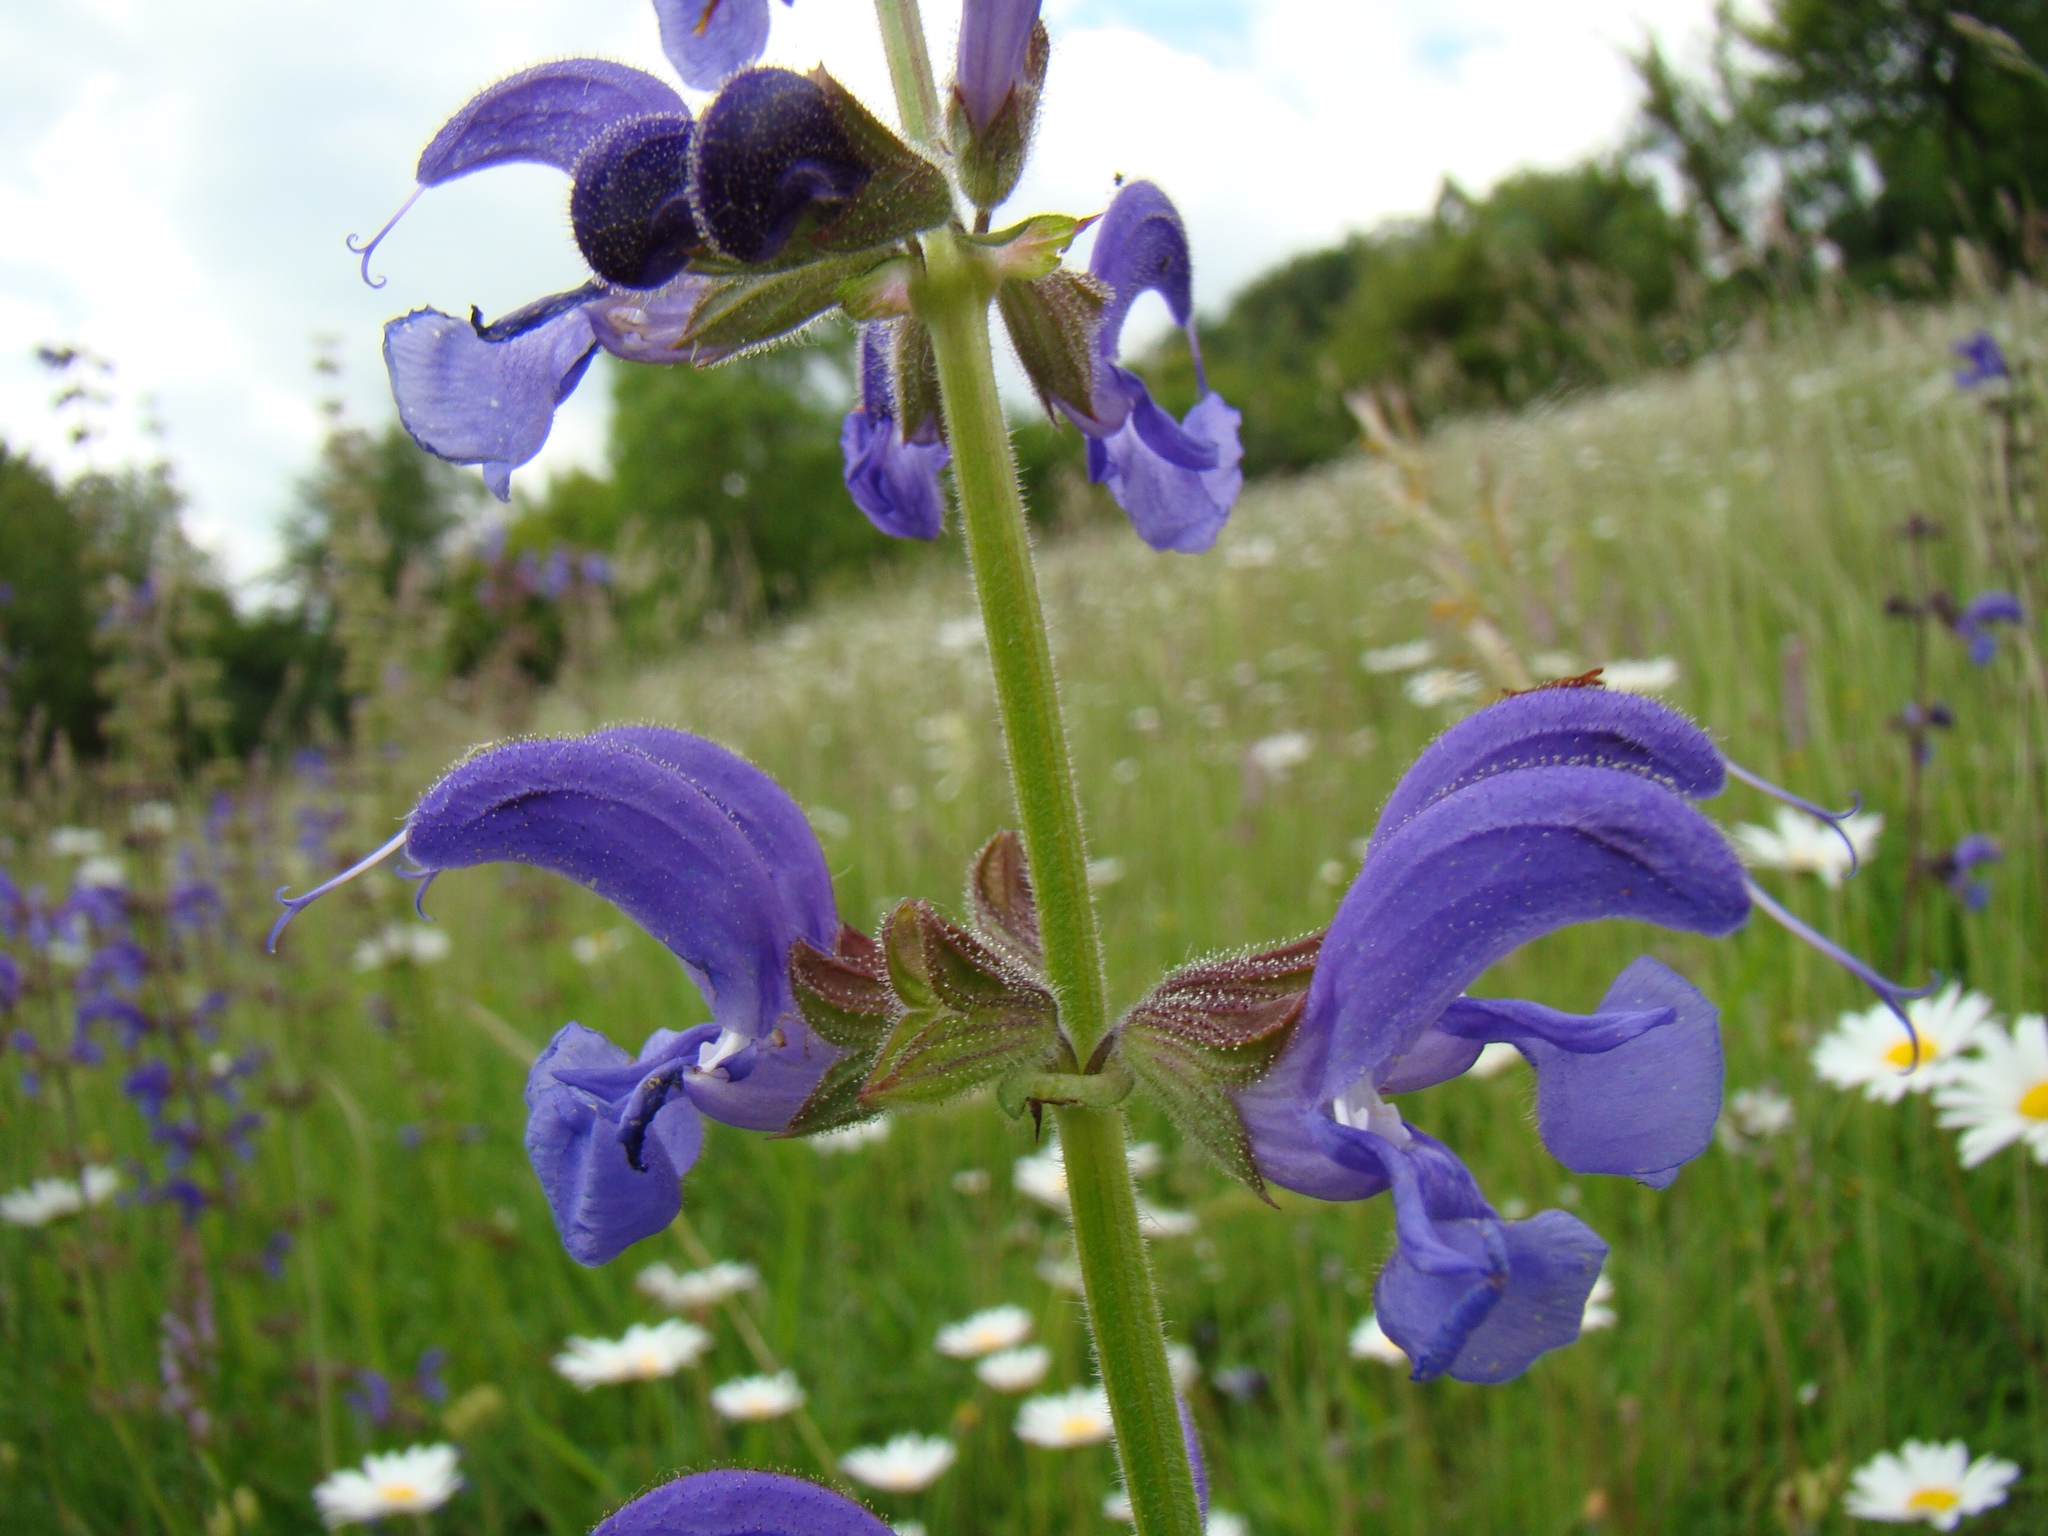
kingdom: Plantae
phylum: Tracheophyta
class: Magnoliopsida
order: Lamiales
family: Lamiaceae
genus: Salvia
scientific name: Salvia pratensis
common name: Meadow sage
